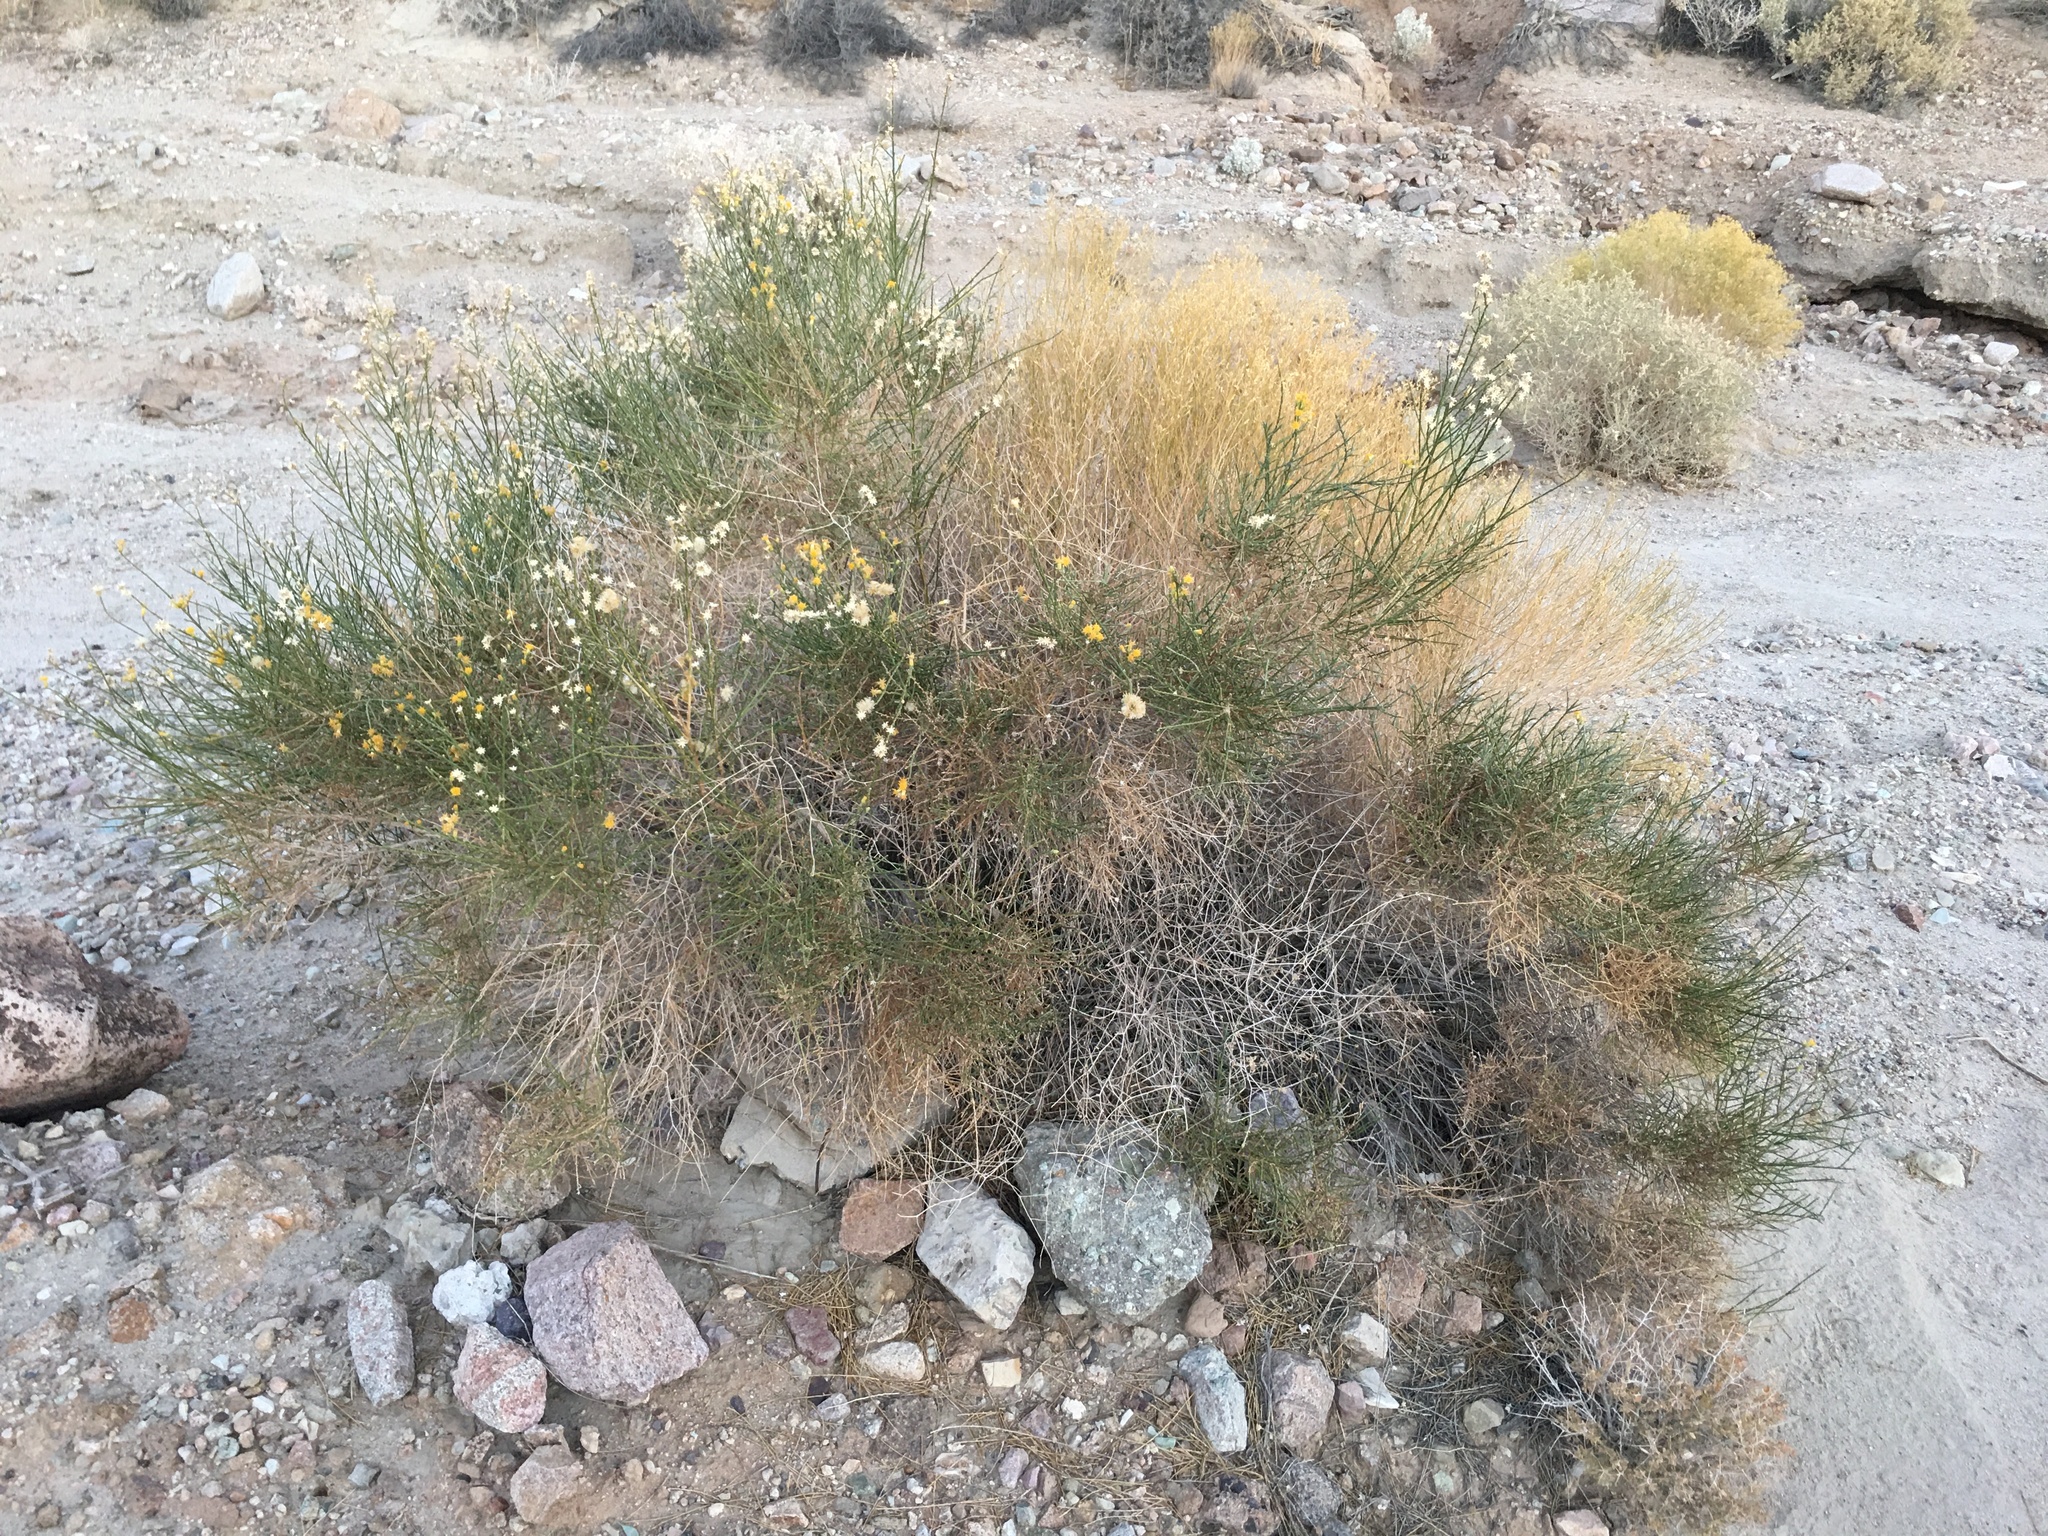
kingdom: Plantae
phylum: Tracheophyta
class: Magnoliopsida
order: Asterales
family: Asteraceae
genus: Lepidospartum
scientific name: Lepidospartum squamatum
